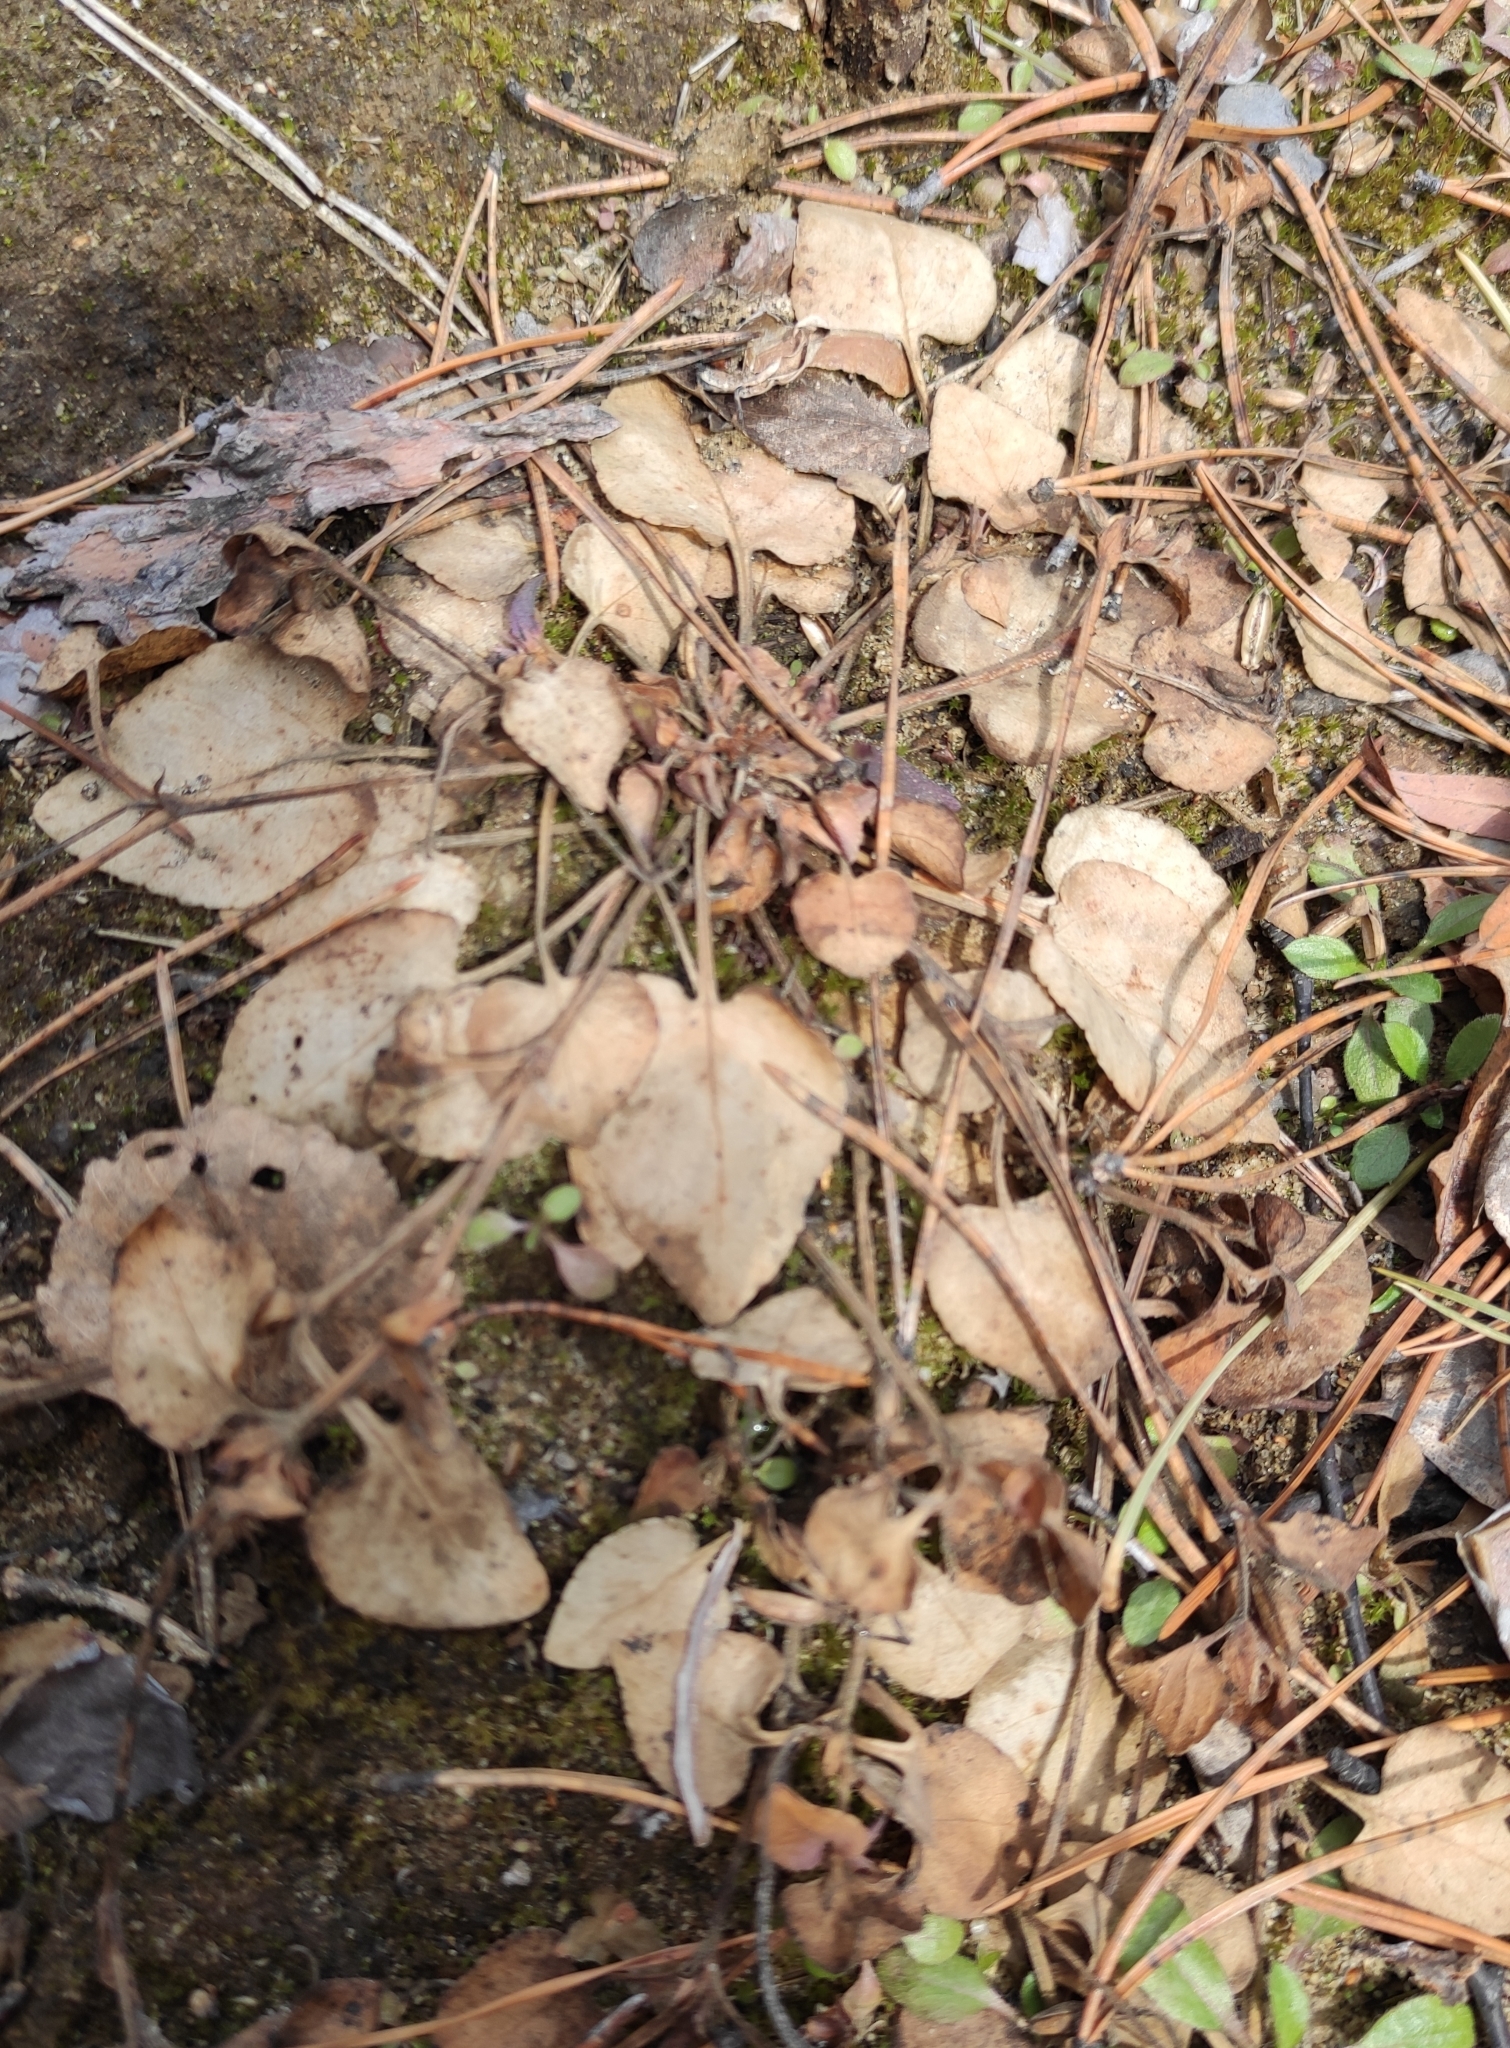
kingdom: Plantae
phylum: Tracheophyta
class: Magnoliopsida
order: Malpighiales
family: Violaceae
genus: Viola
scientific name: Viola rupestris
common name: Teesdale violet
